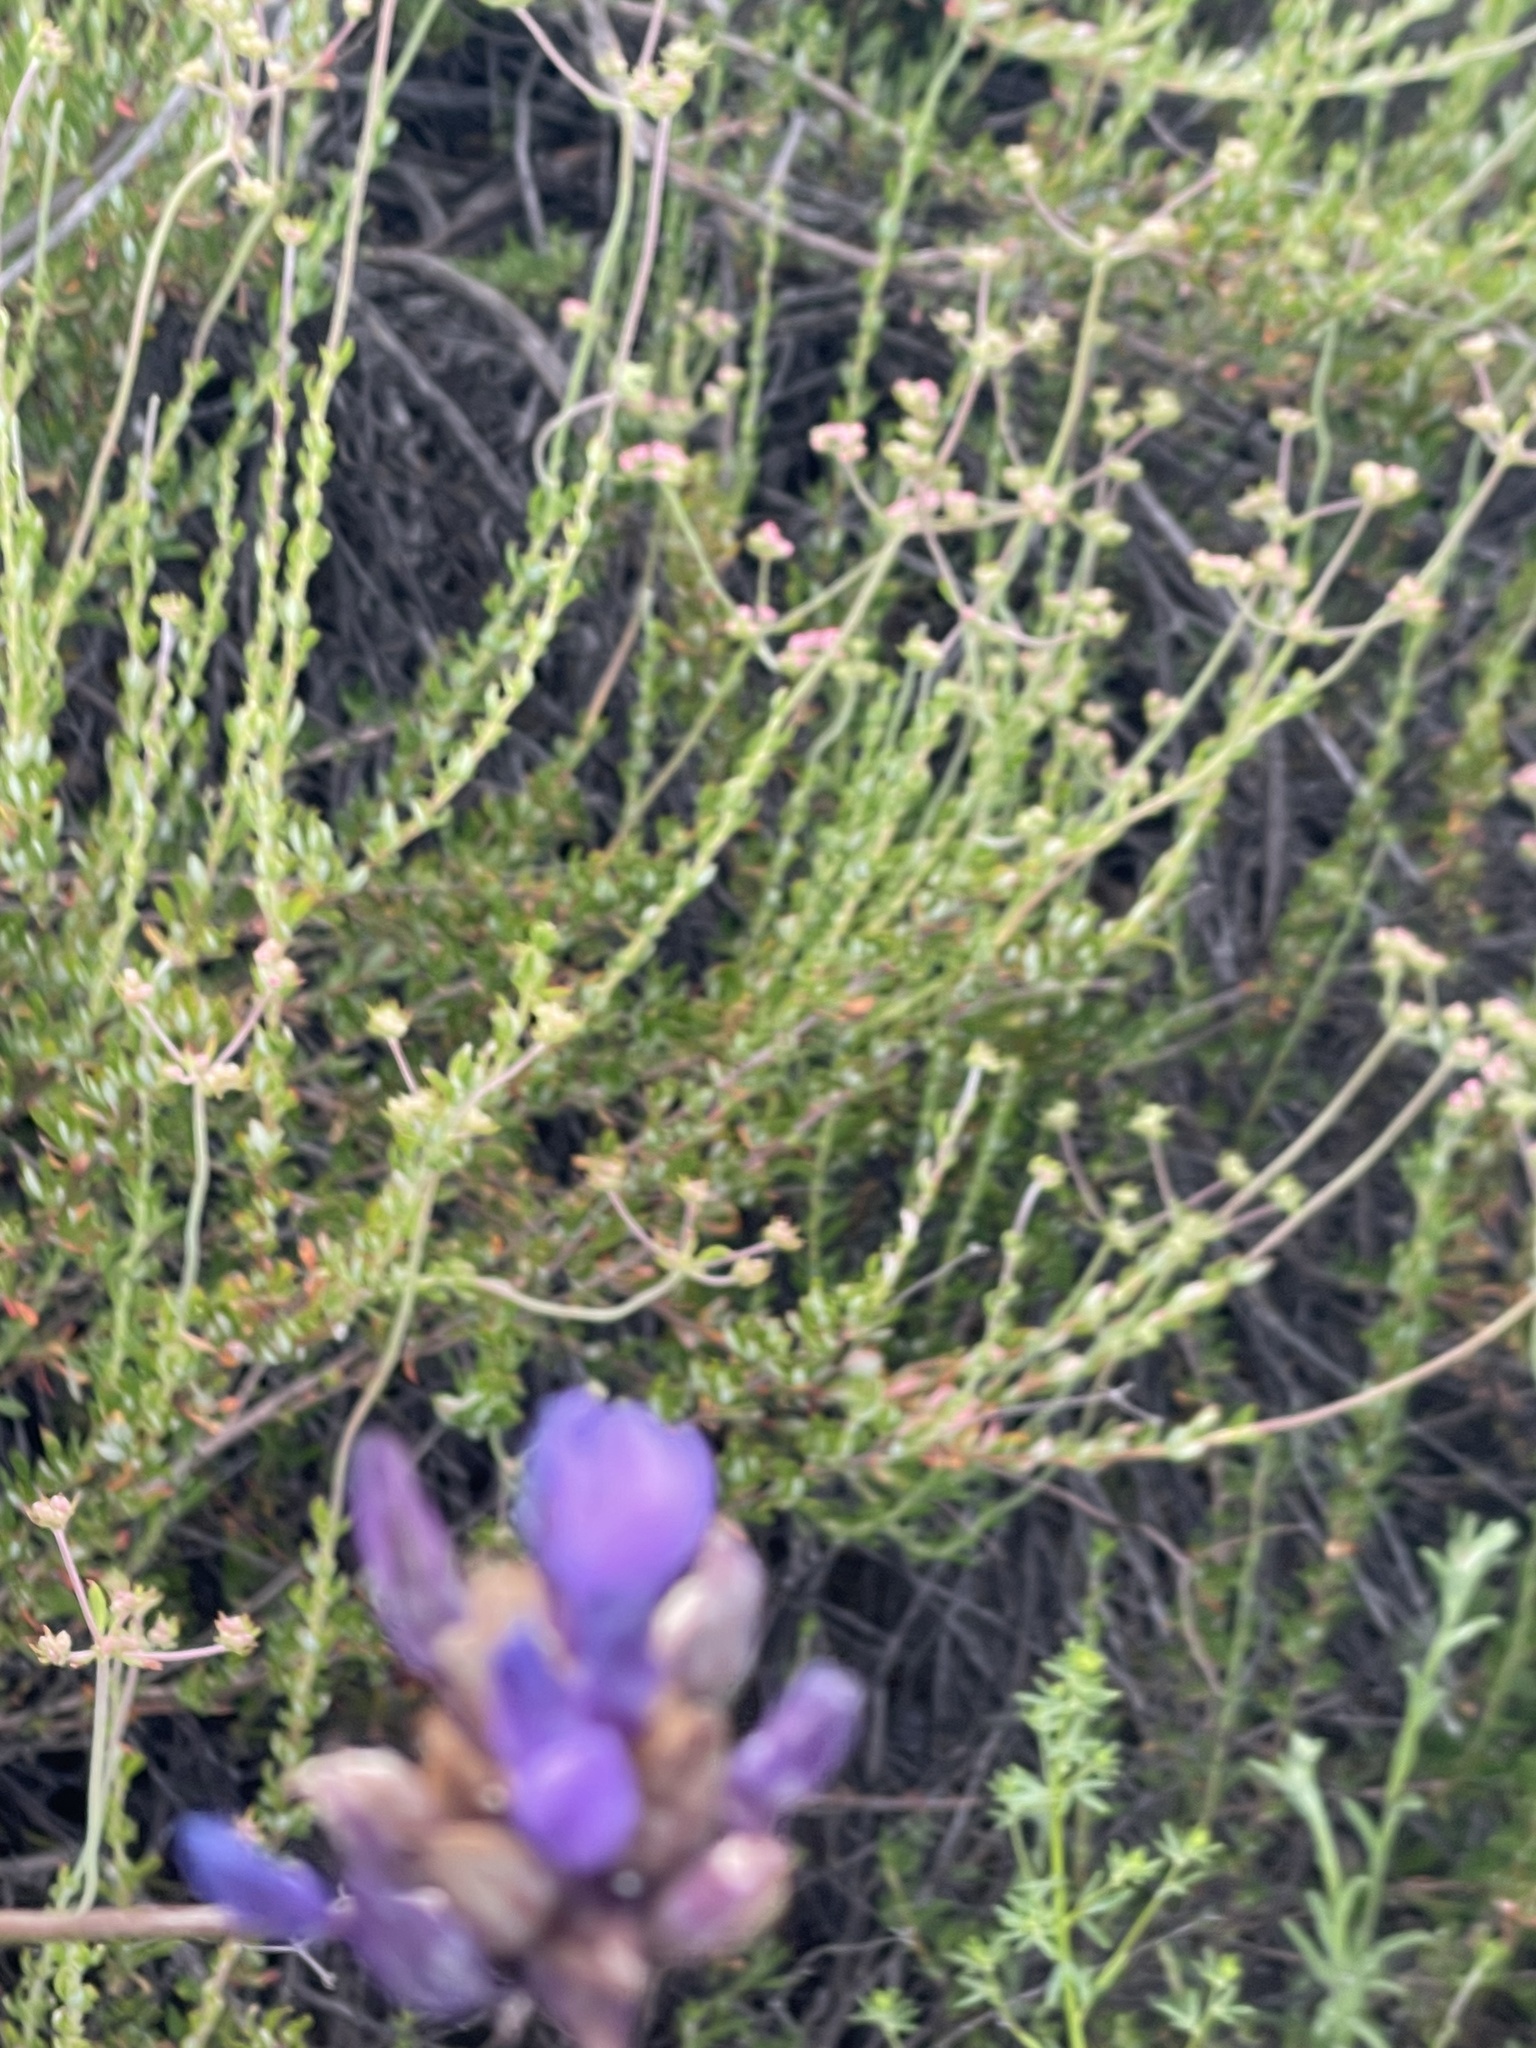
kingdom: Plantae
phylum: Tracheophyta
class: Liliopsida
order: Asparagales
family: Asparagaceae
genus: Dipterostemon
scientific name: Dipterostemon capitatus
